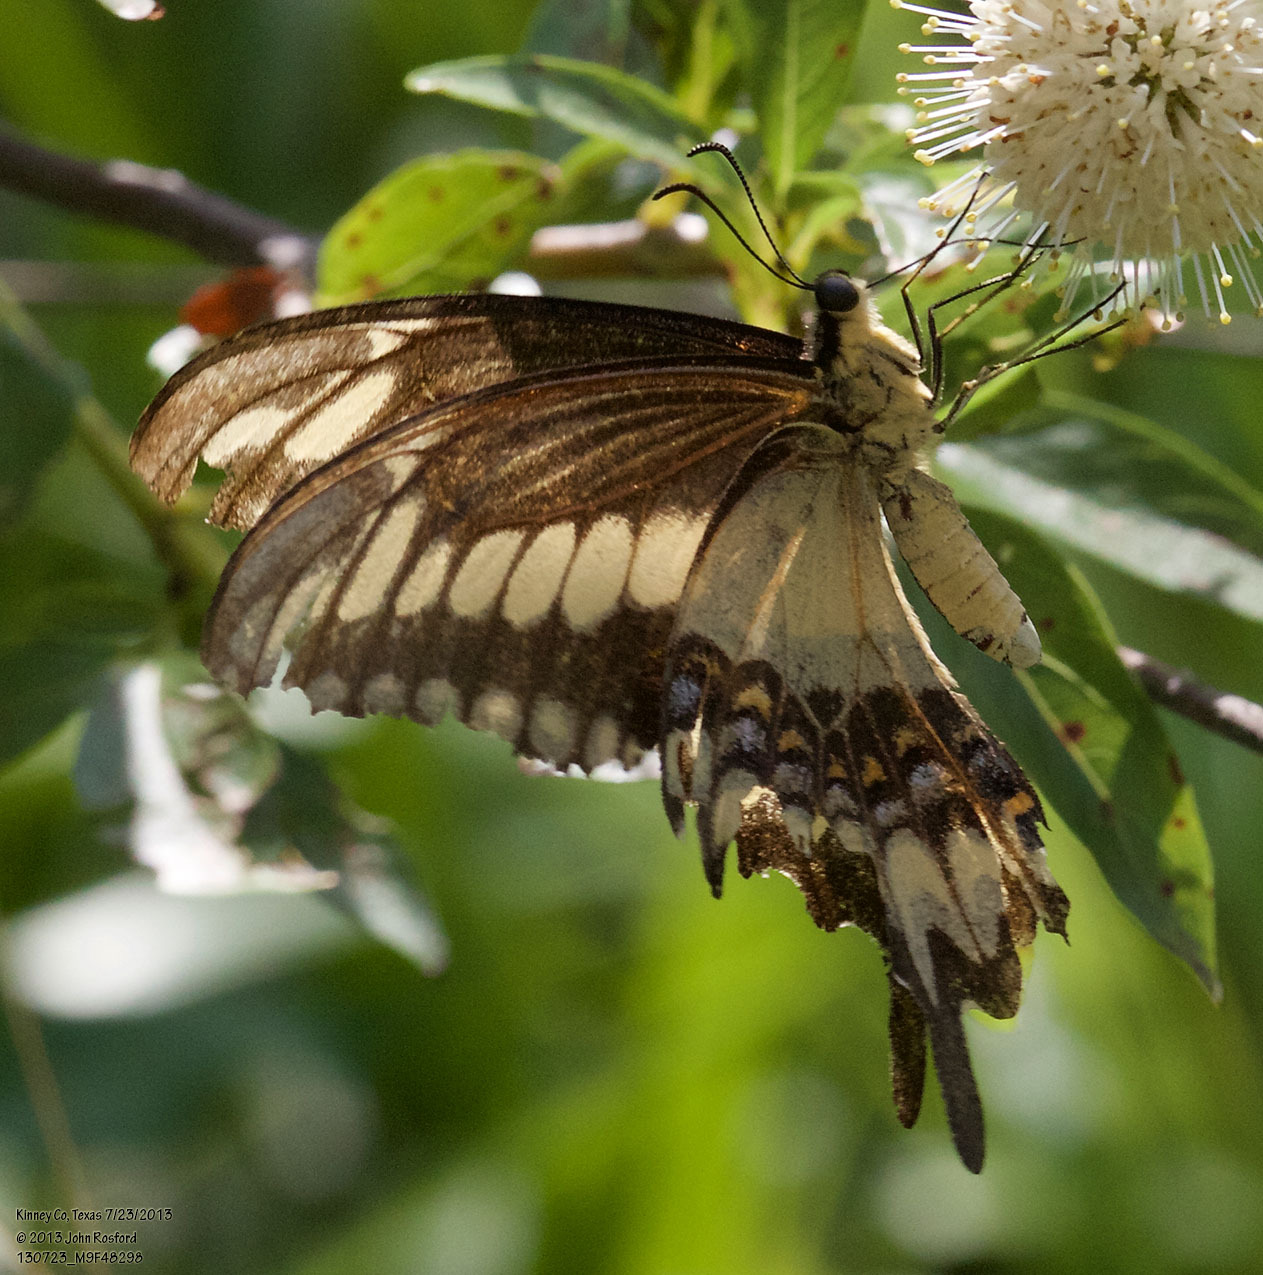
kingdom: Animalia
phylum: Arthropoda
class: Insecta
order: Lepidoptera
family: Papilionidae
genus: Papilio
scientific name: Papilio ornythion
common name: Ornythion swallowtail
